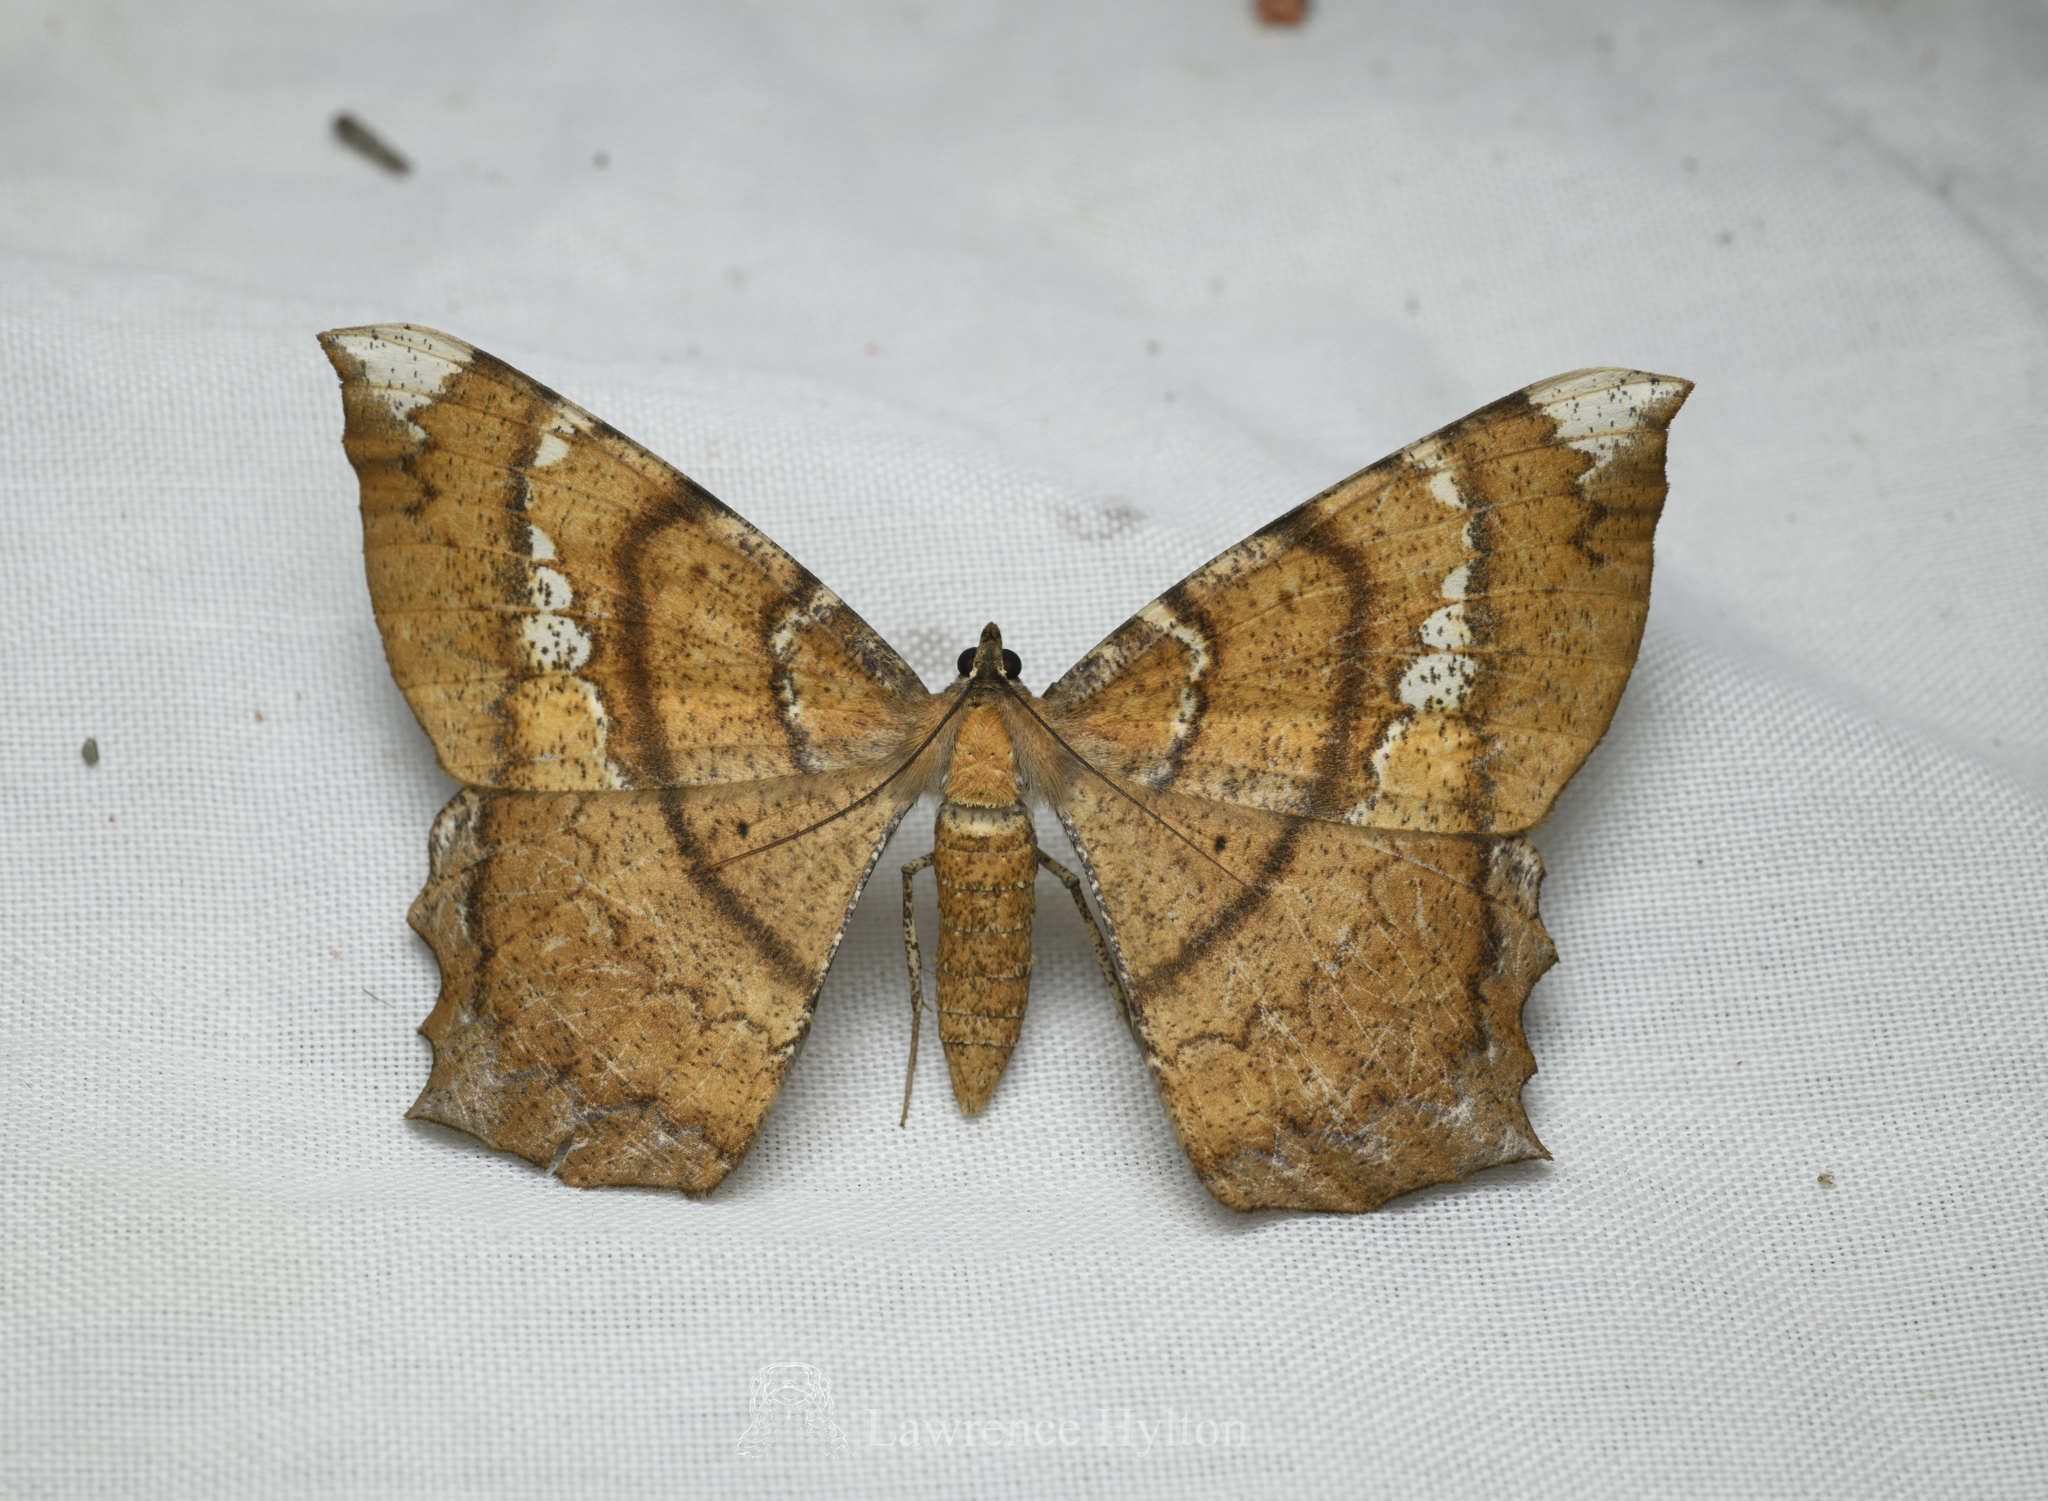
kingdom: Animalia
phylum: Arthropoda
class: Insecta
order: Lepidoptera
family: Geometridae
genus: Amblychia
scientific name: Amblychia angeronaria
